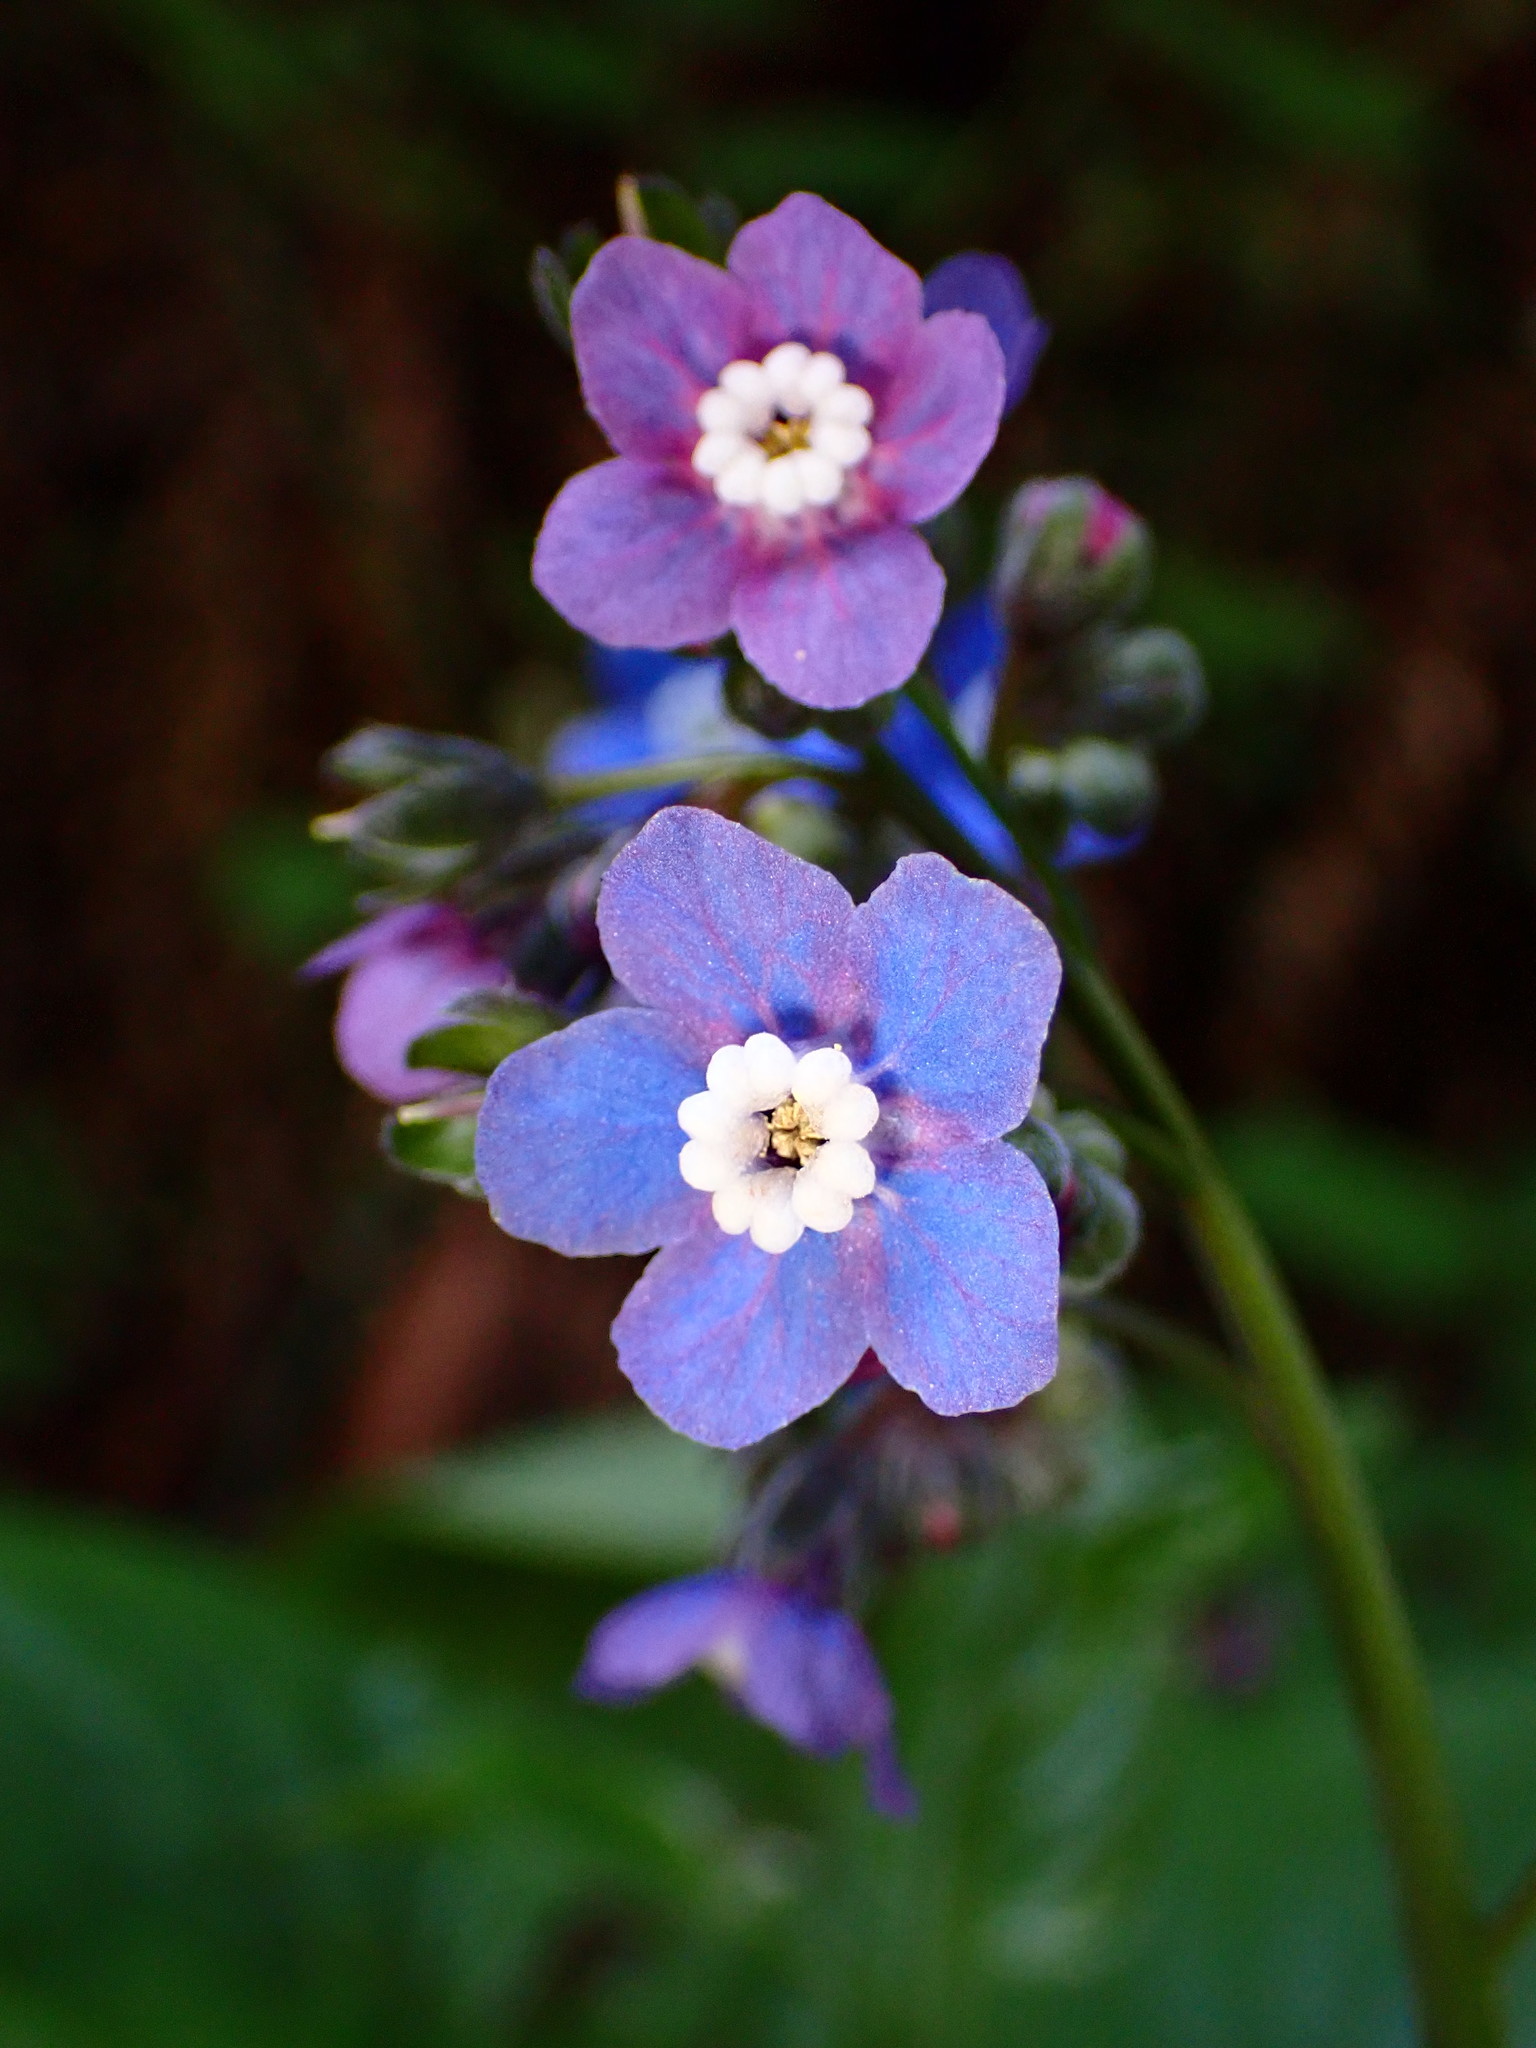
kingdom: Plantae
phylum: Tracheophyta
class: Magnoliopsida
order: Boraginales
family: Boraginaceae
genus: Adelinia
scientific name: Adelinia grande
